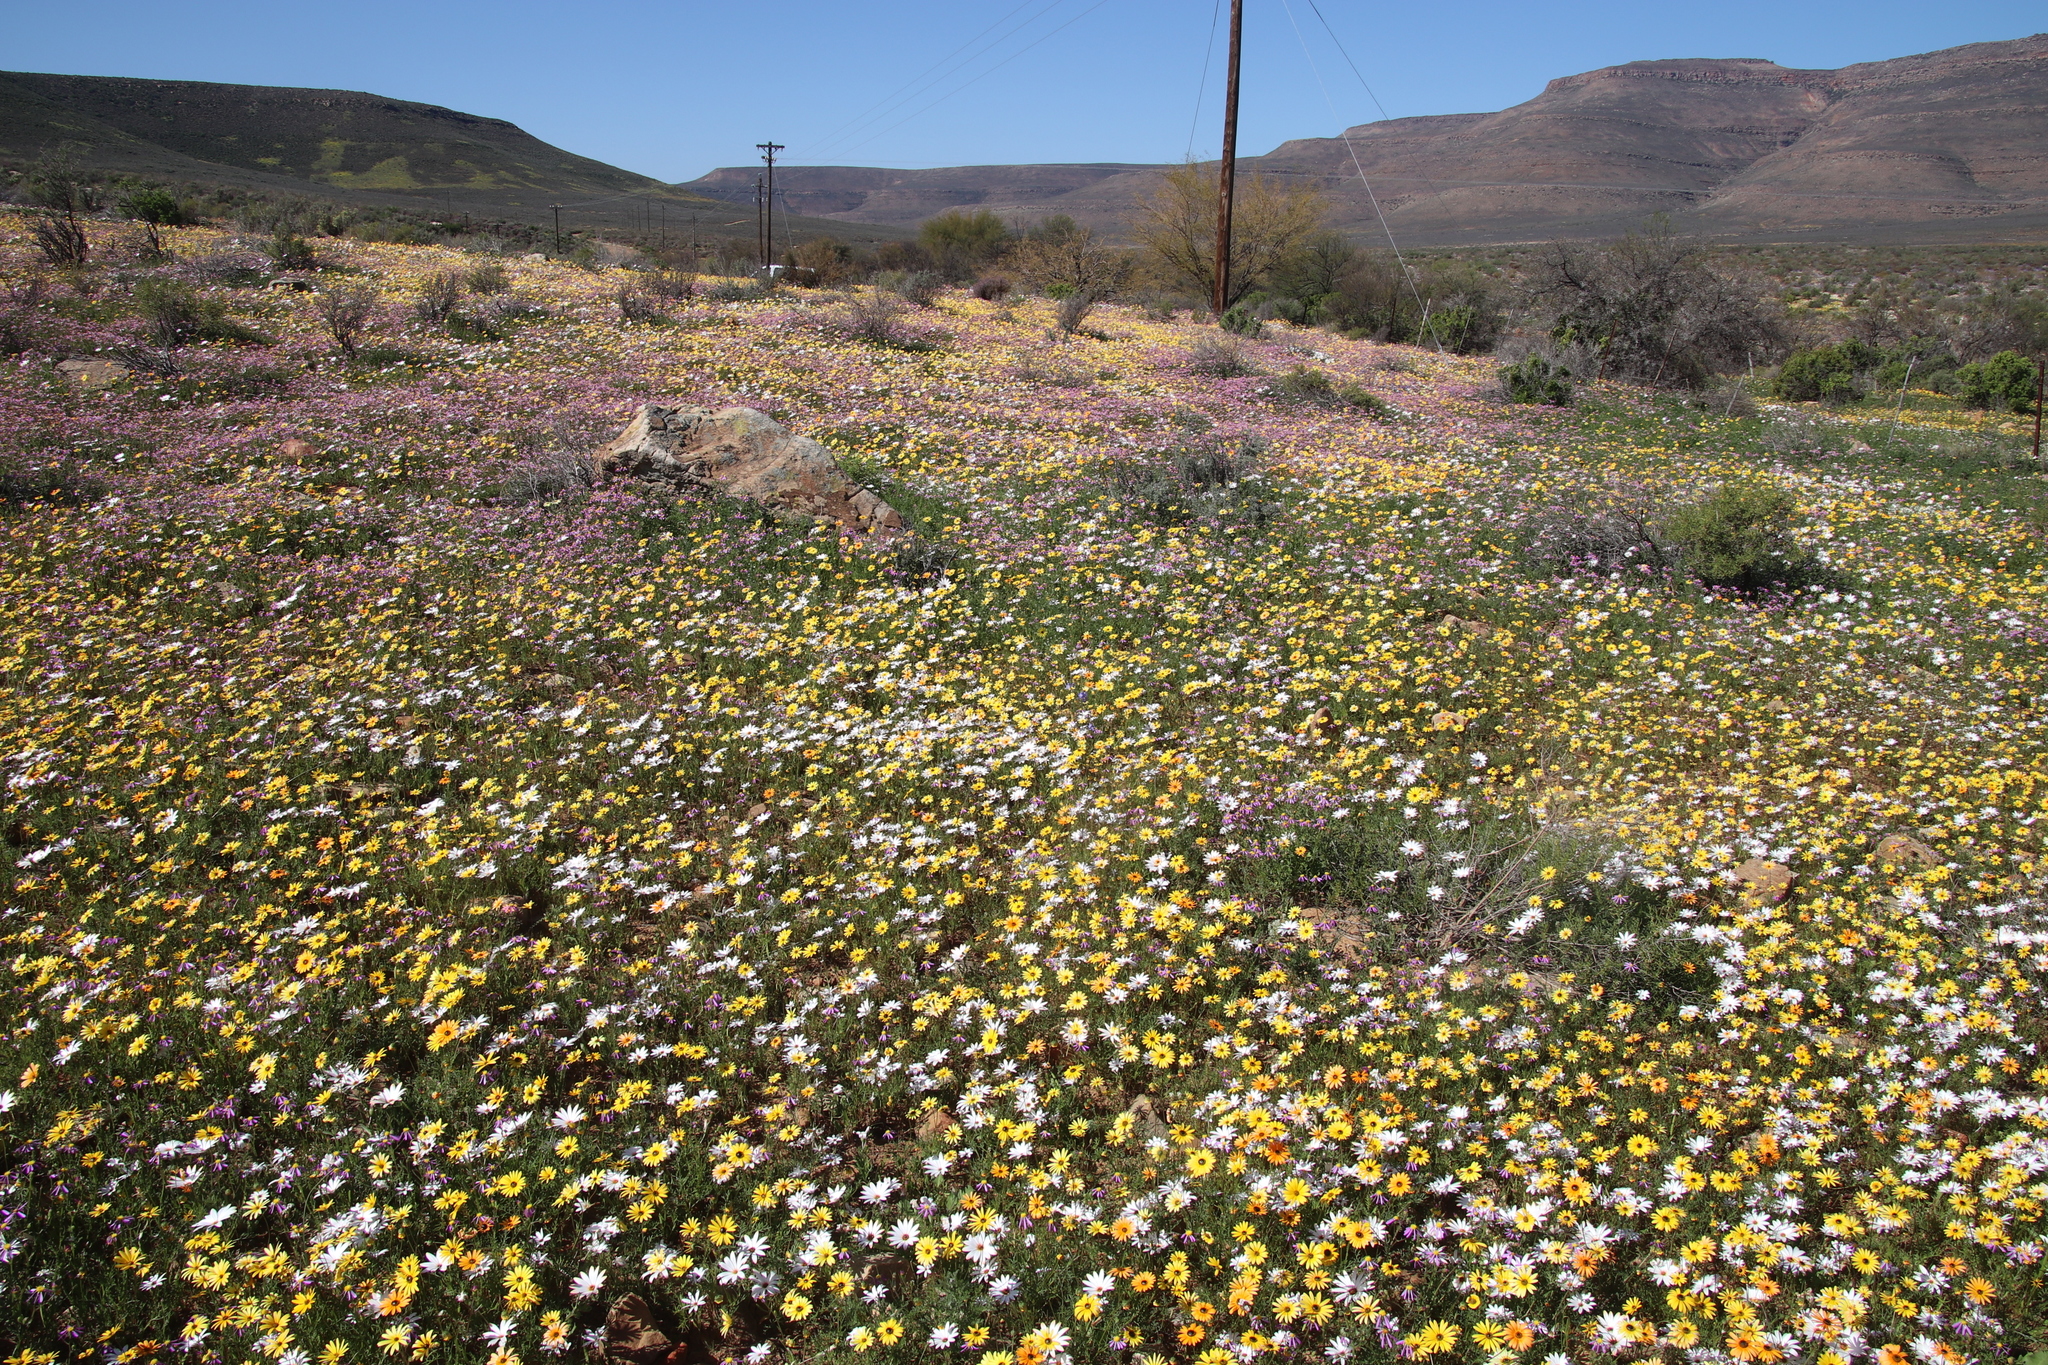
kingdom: Plantae
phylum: Tracheophyta
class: Magnoliopsida
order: Asterales
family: Asteraceae
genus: Dimorphotheca
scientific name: Dimorphotheca sinuata
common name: Glandular cape marigold
